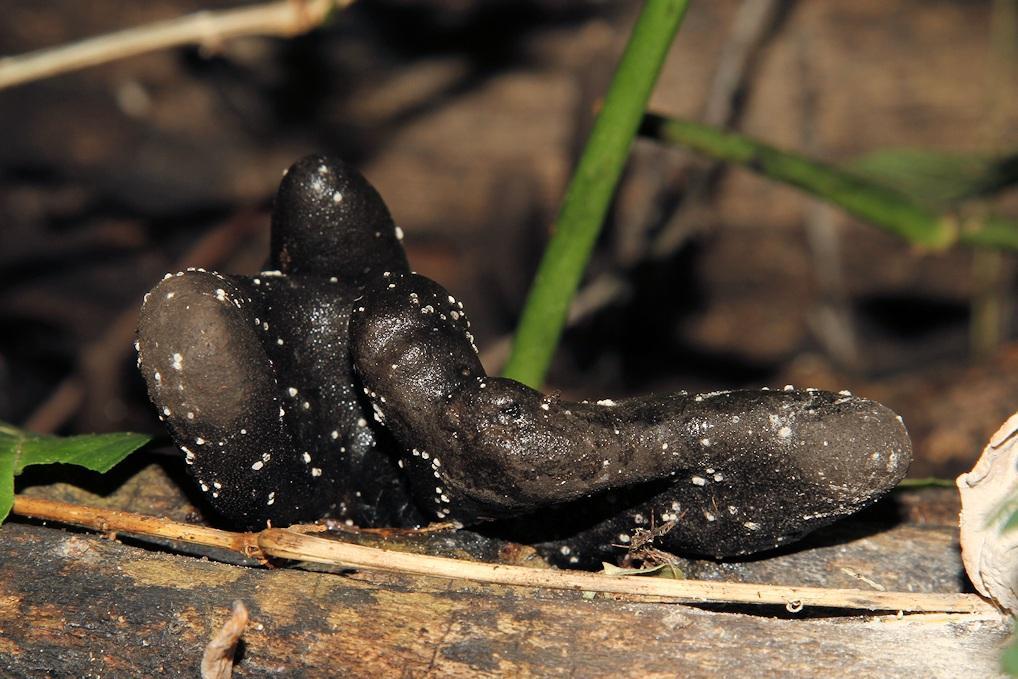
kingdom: Fungi
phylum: Ascomycota
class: Sordariomycetes
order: Xylariales
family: Xylariaceae
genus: Xylaria
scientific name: Xylaria polymorpha
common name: Dead man's fingers
